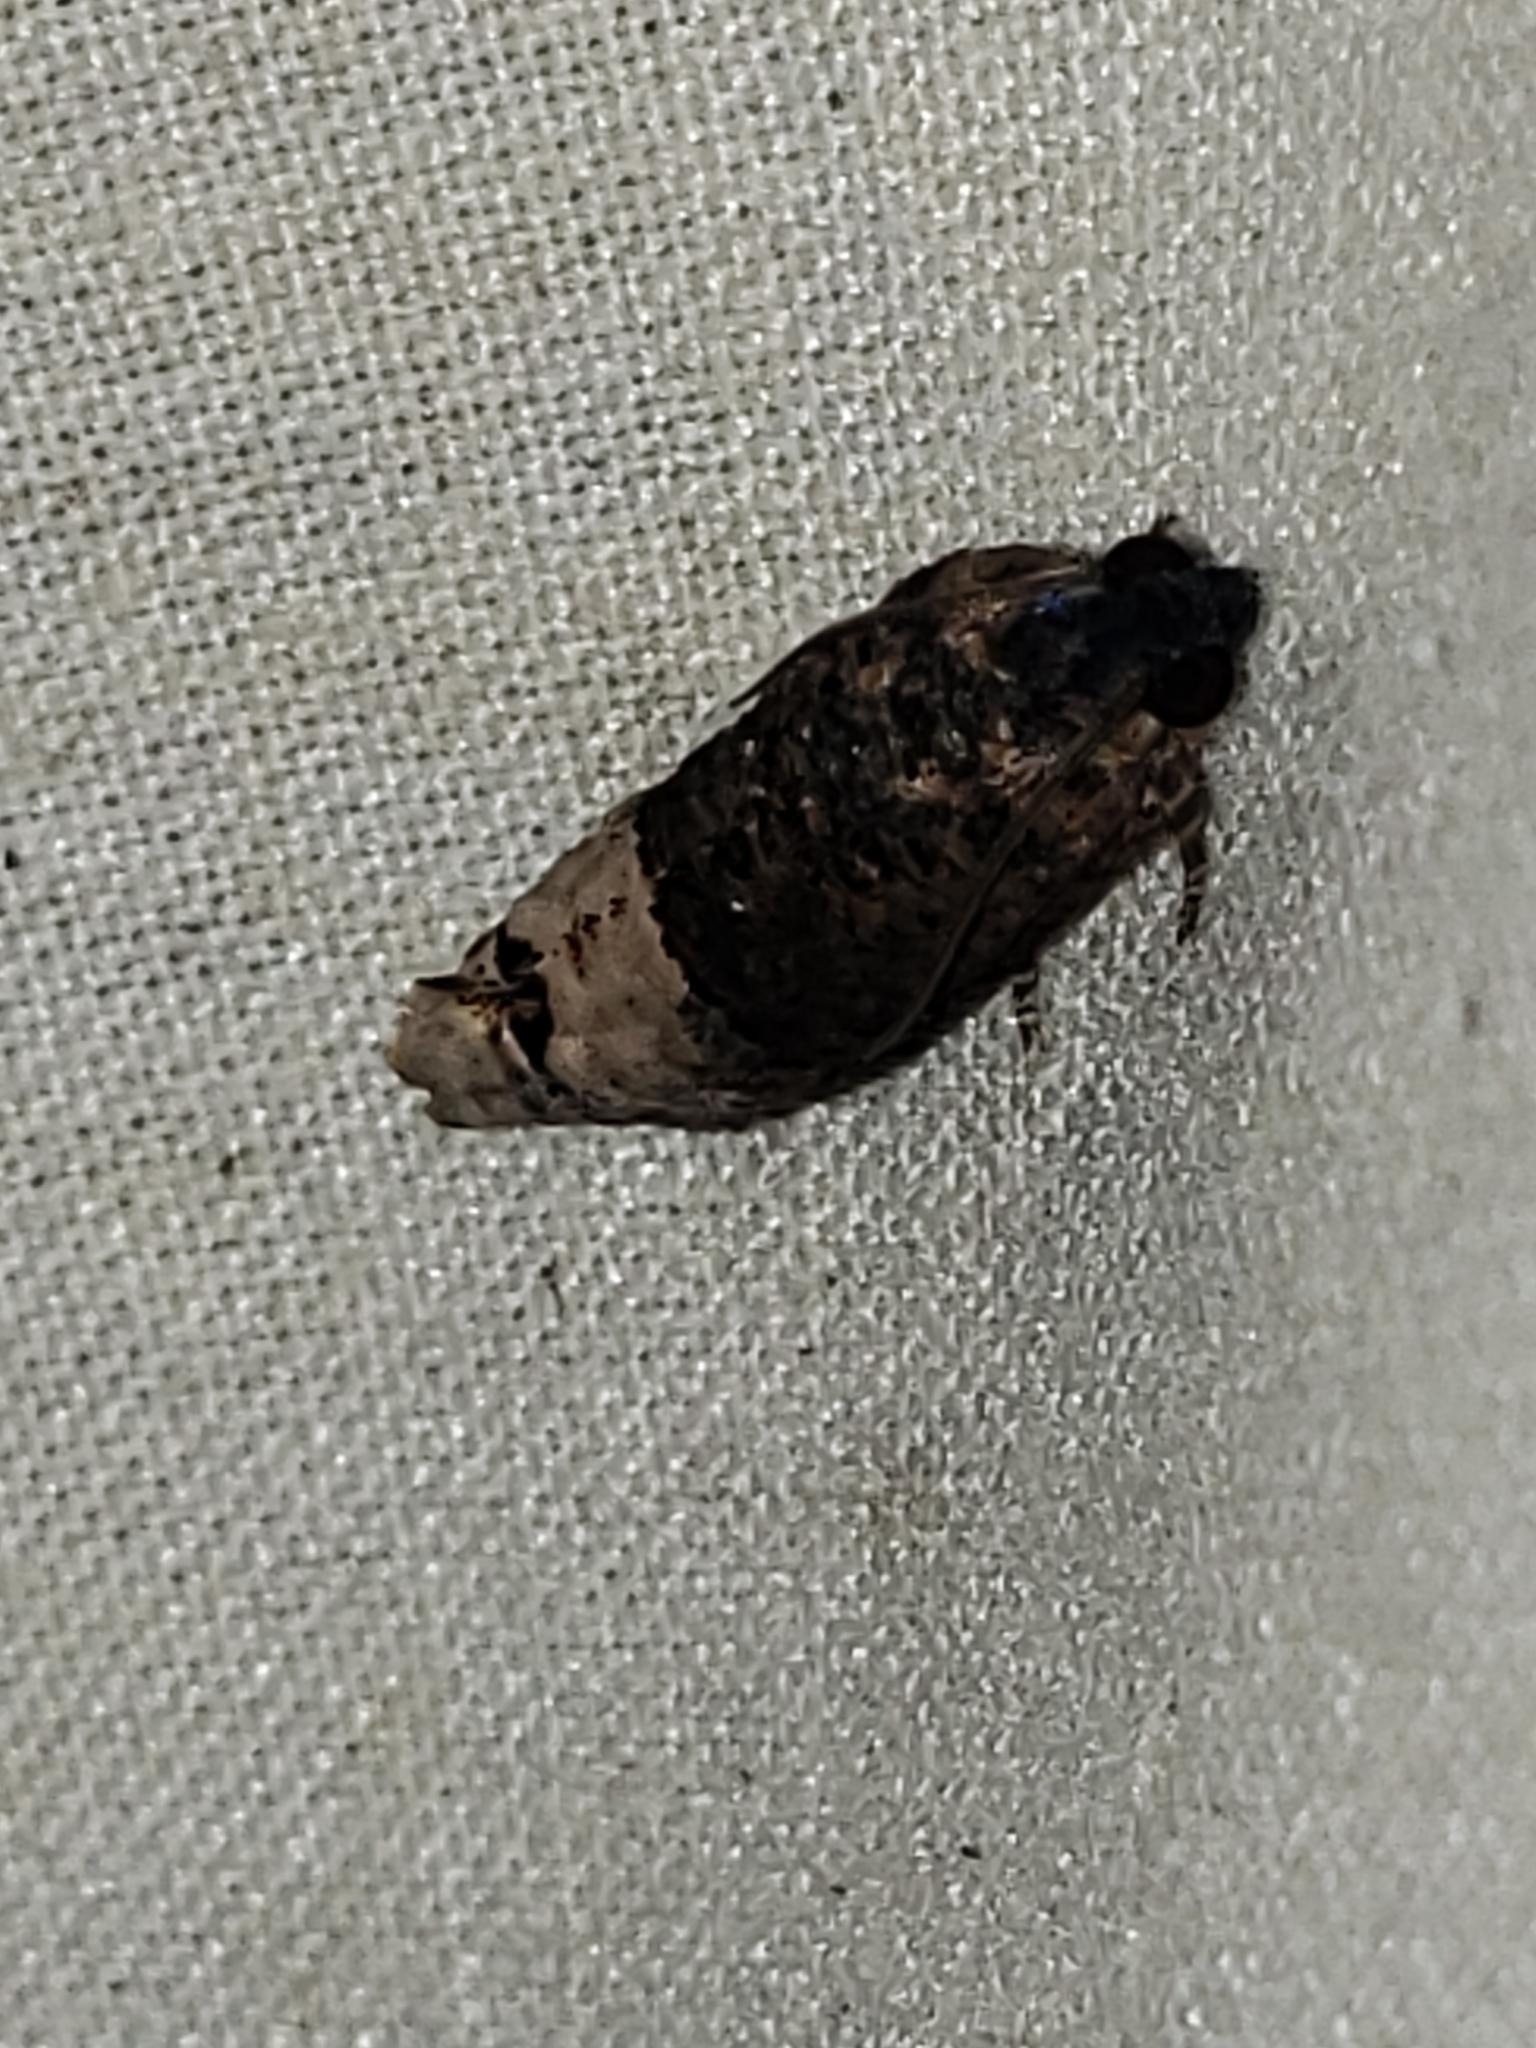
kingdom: Animalia
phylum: Arthropoda
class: Insecta
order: Lepidoptera
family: Tortricidae
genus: Ecdytolopha
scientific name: Ecdytolopha insiticiana
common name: Locust twig borer moth
